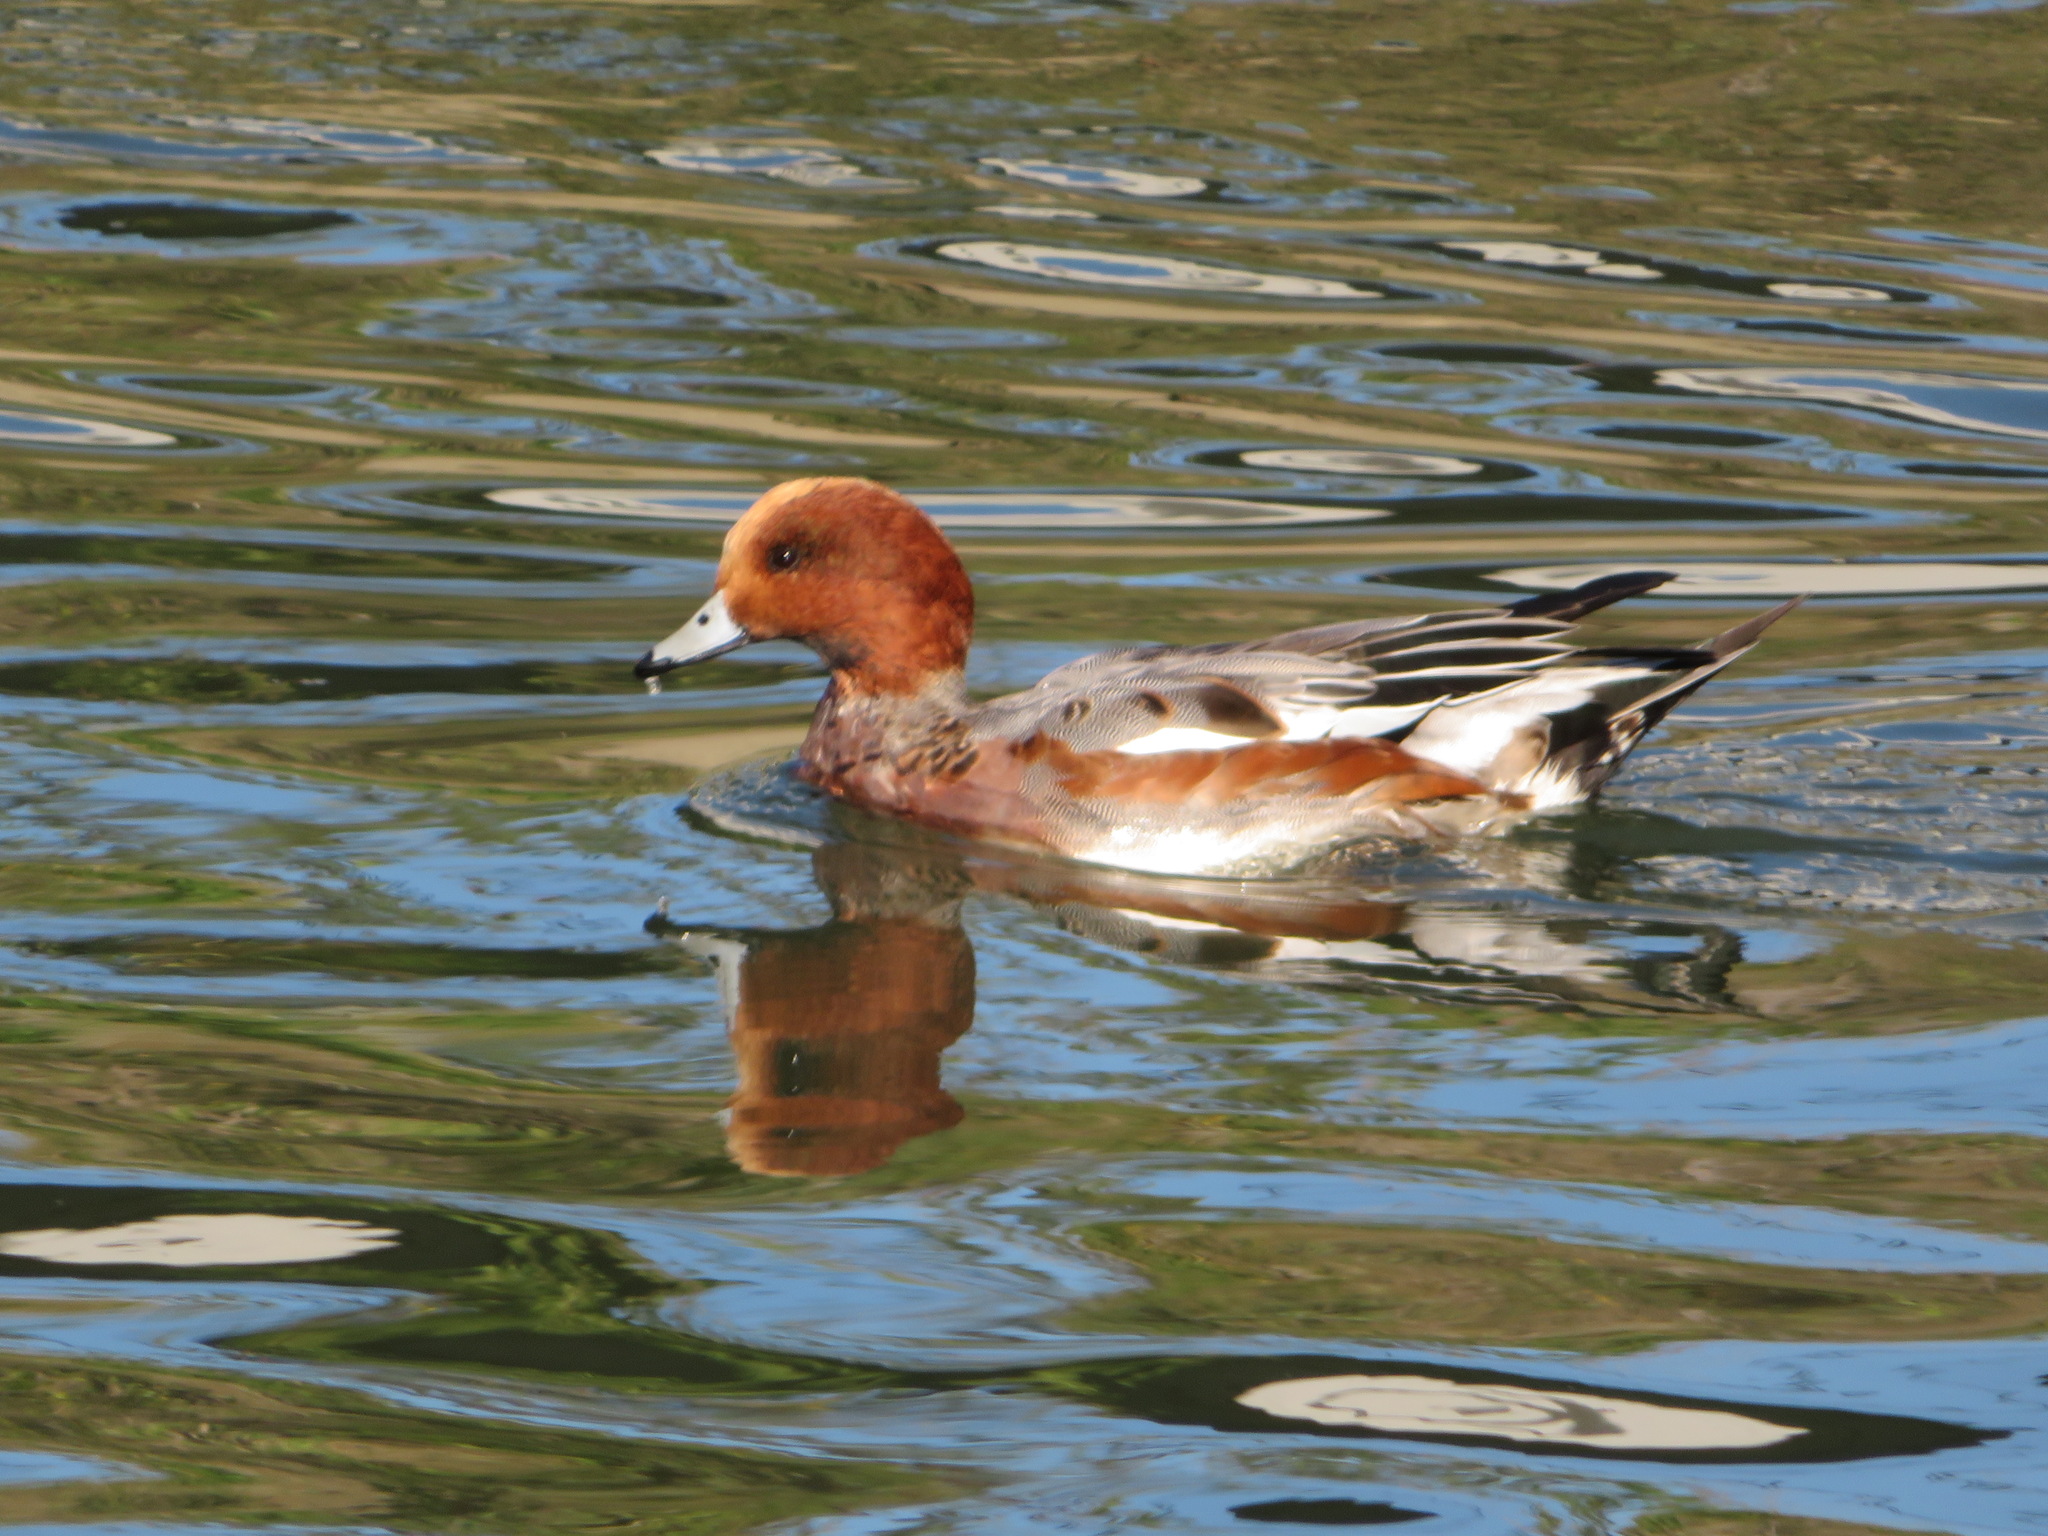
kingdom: Animalia
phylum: Chordata
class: Aves
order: Anseriformes
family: Anatidae
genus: Mareca
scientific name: Mareca penelope
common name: Eurasian wigeon
